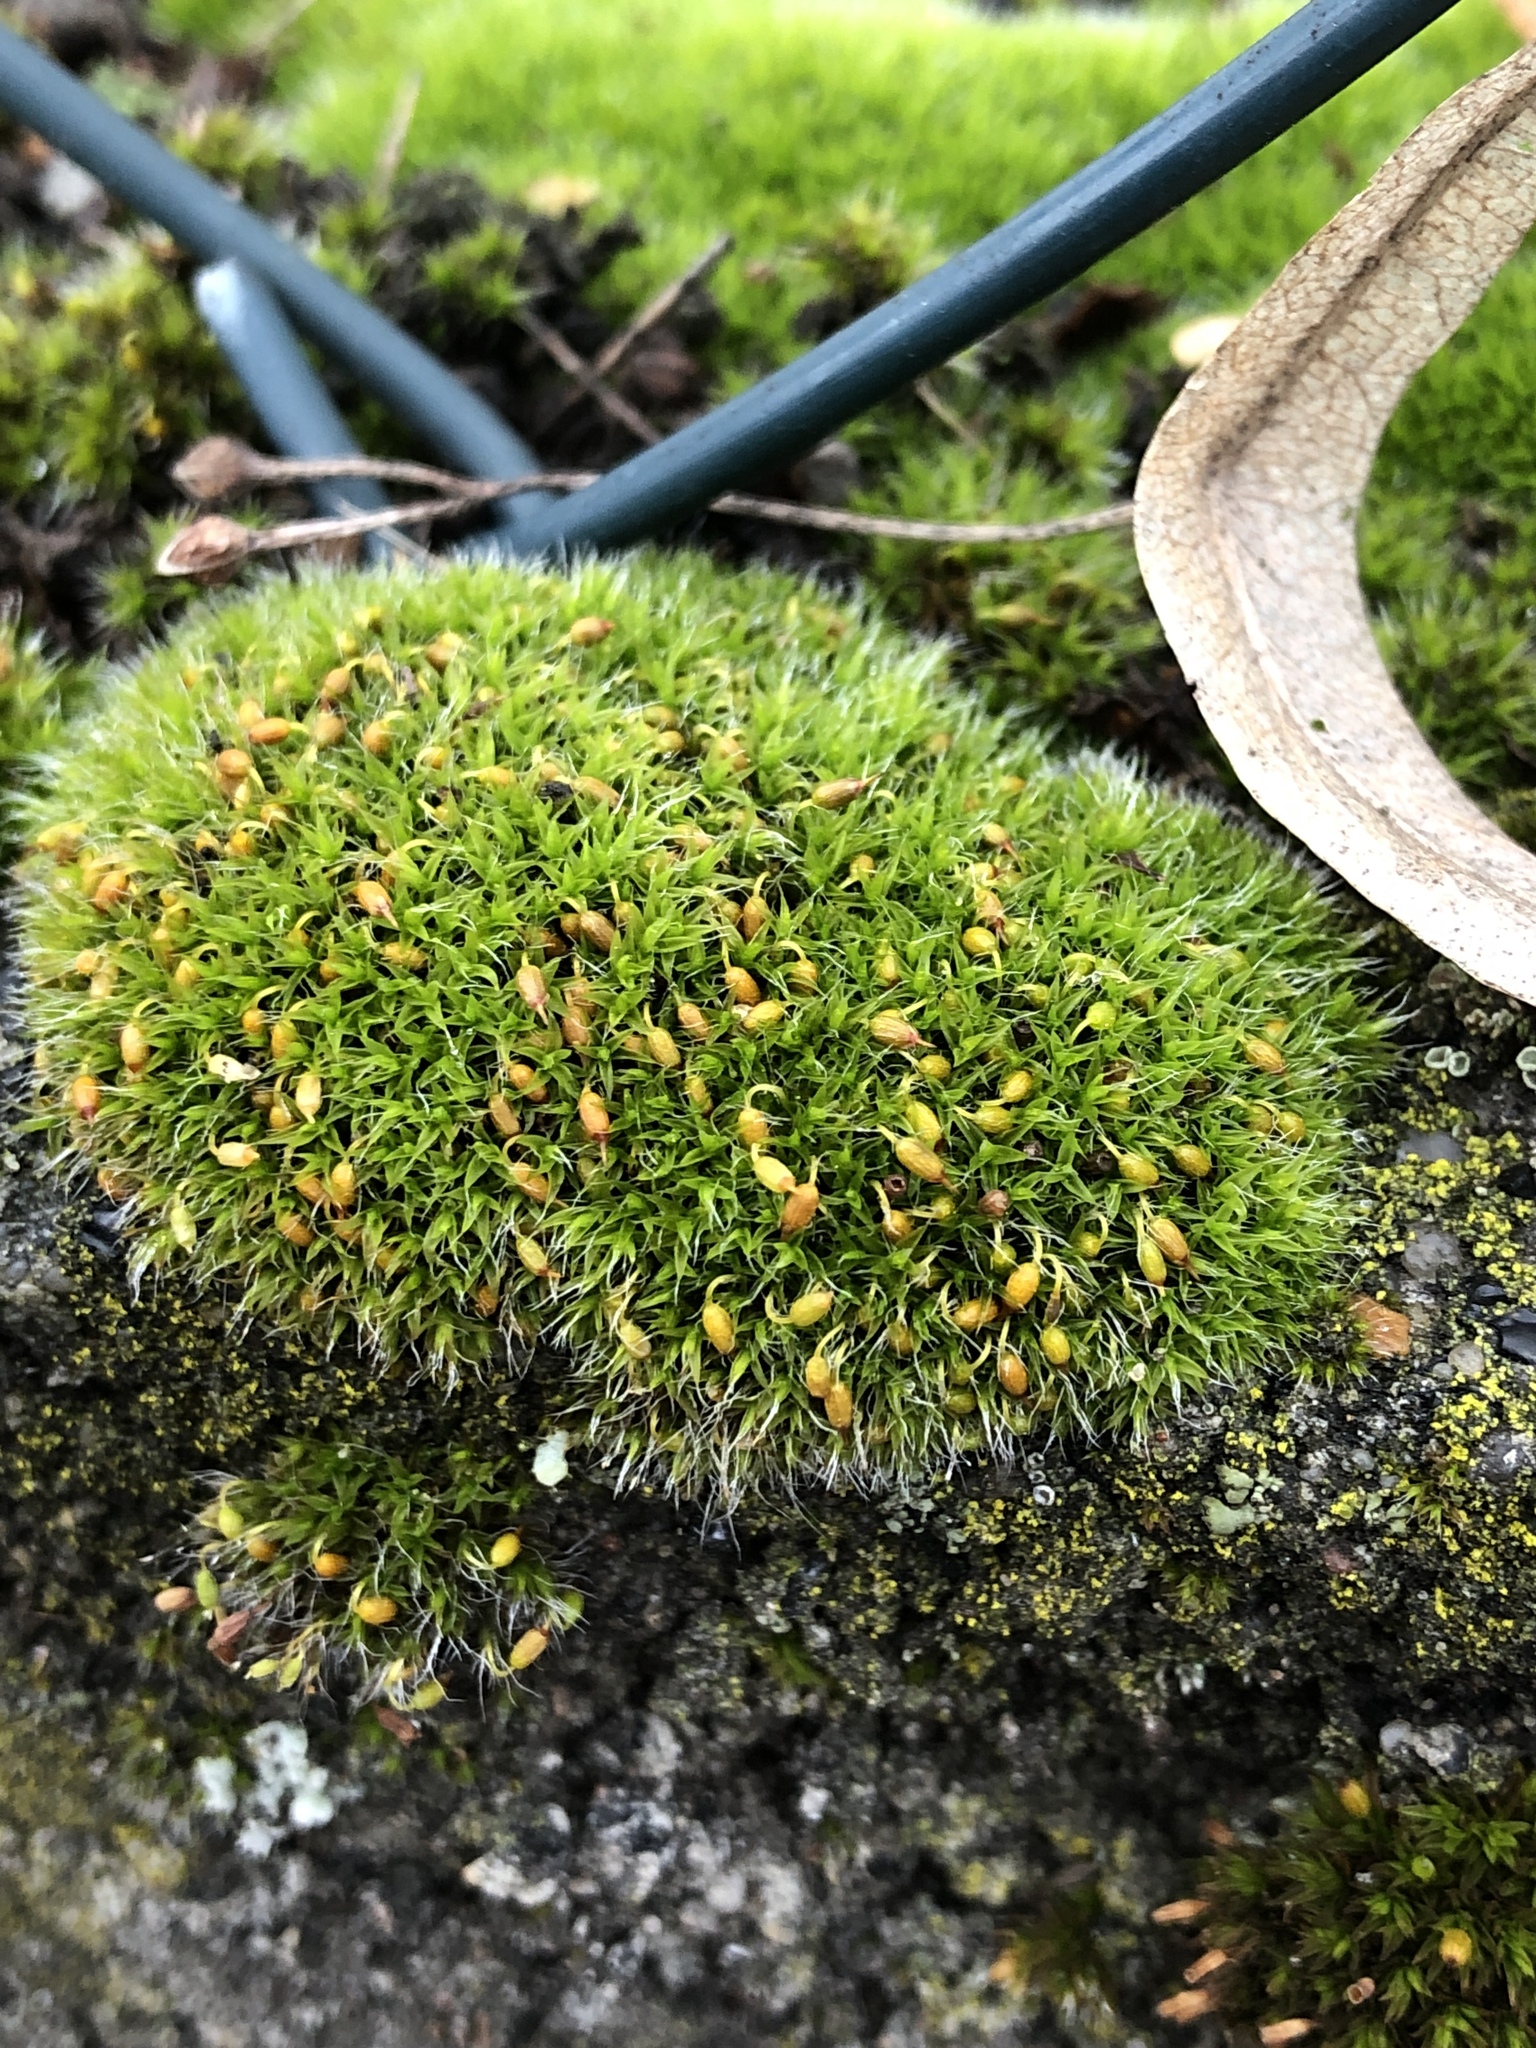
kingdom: Plantae
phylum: Bryophyta
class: Bryopsida
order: Grimmiales
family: Grimmiaceae
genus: Grimmia
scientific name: Grimmia pulvinata
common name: Grey-cushioned grimmia
